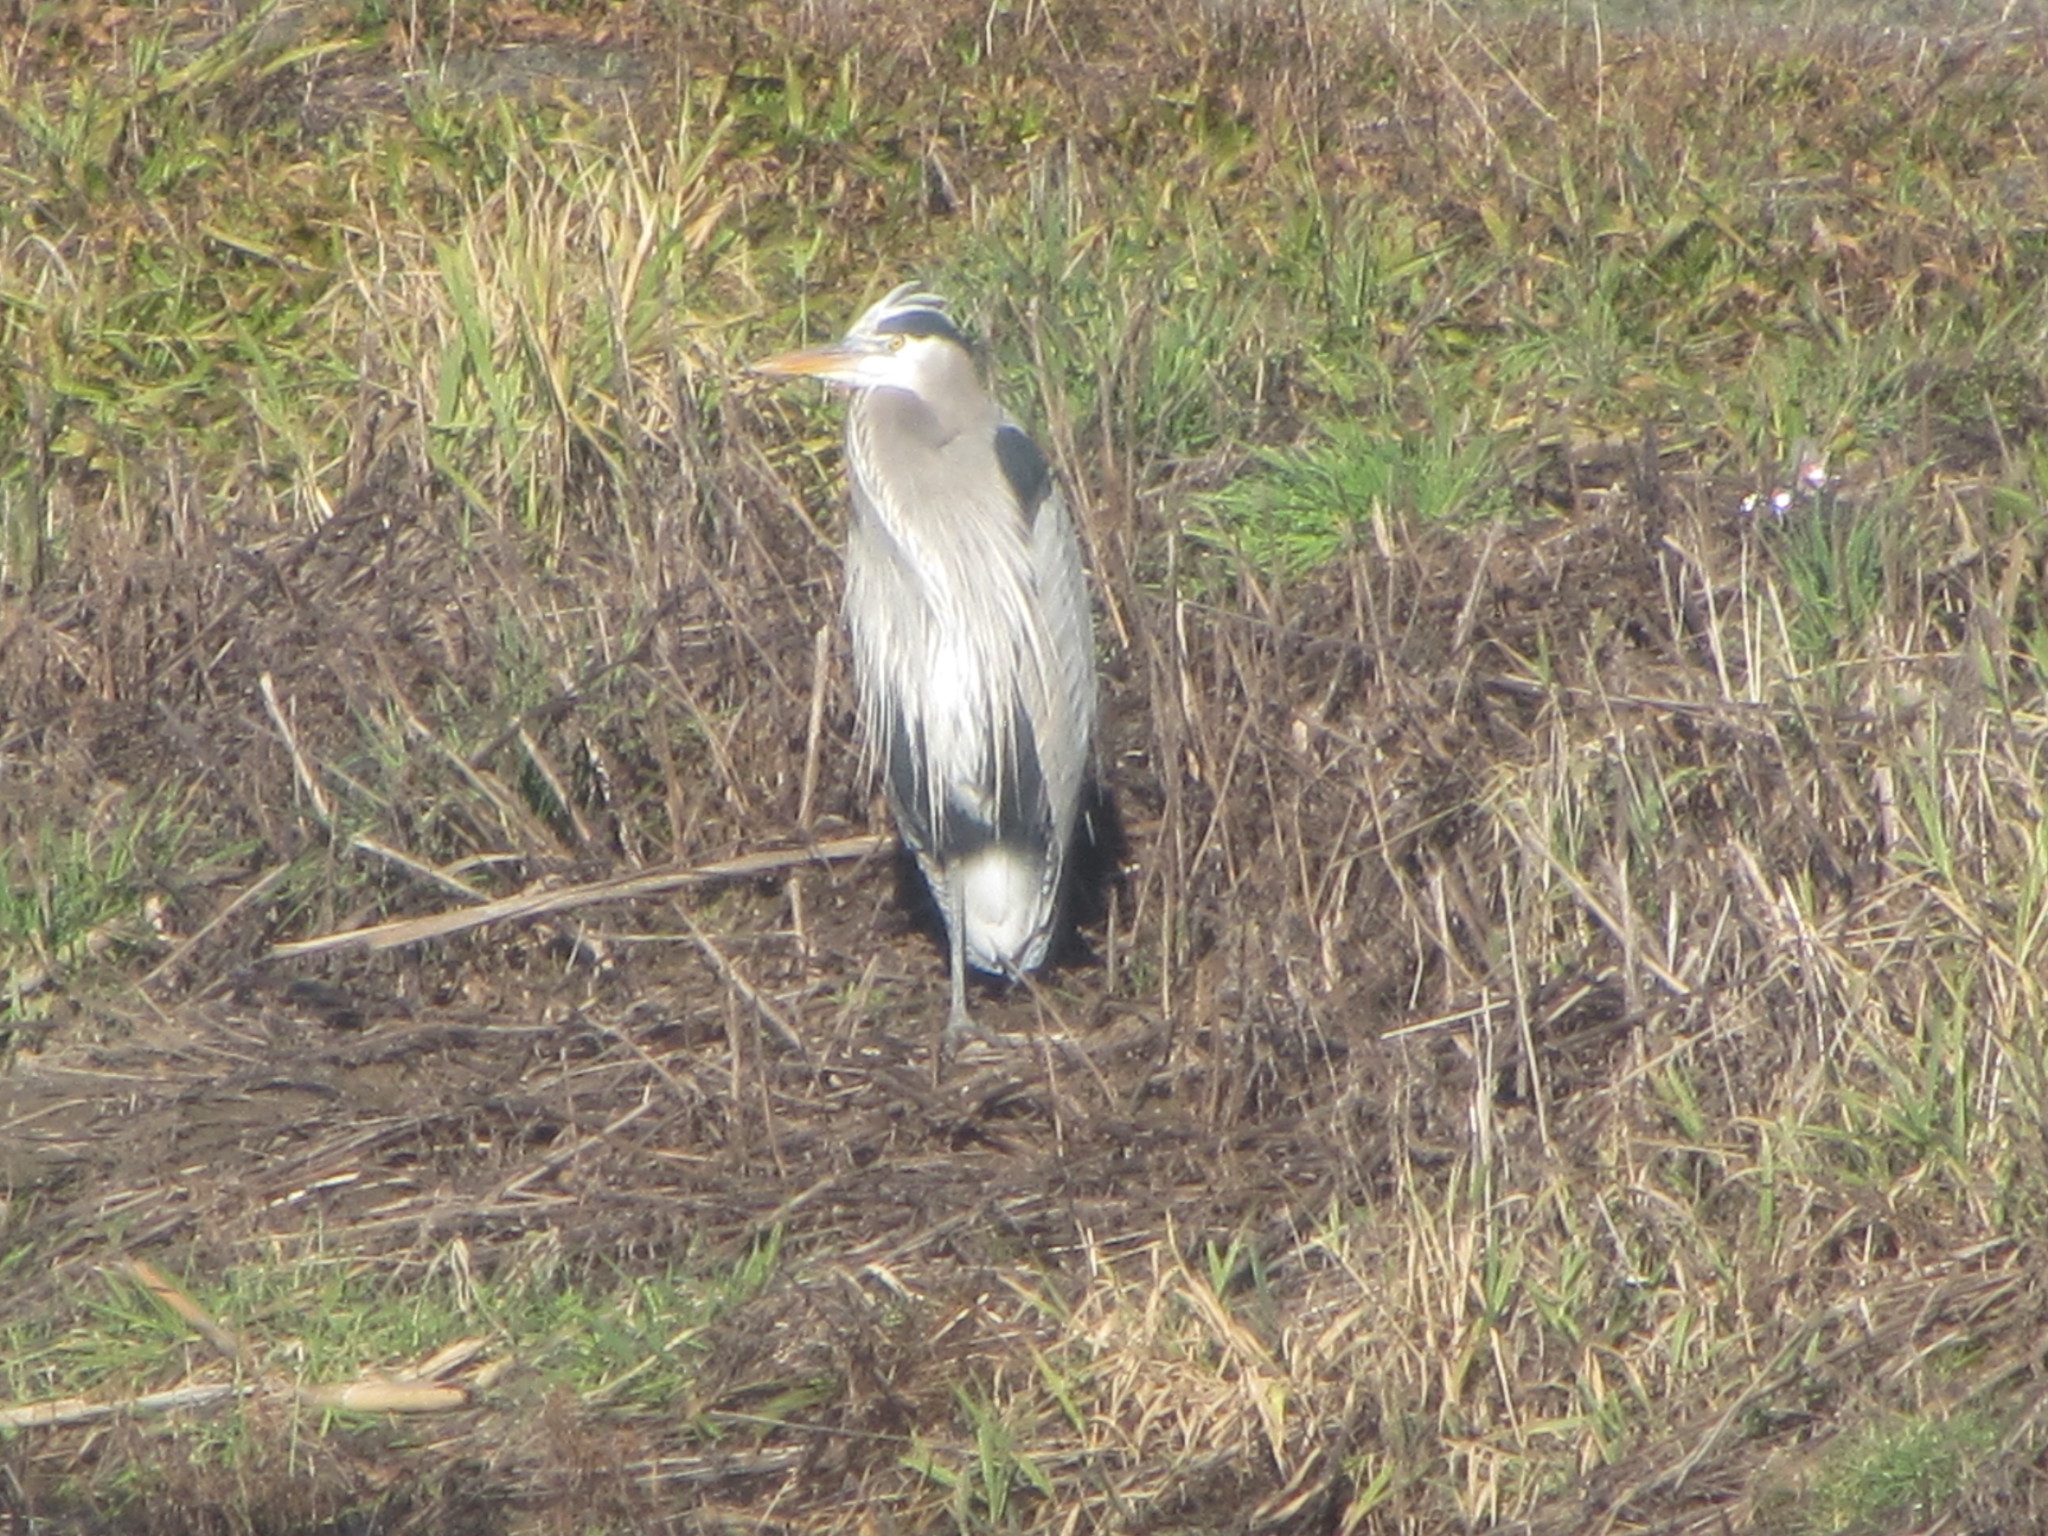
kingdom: Animalia
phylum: Chordata
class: Aves
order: Pelecaniformes
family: Ardeidae
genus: Ardea
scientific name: Ardea herodias
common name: Great blue heron
